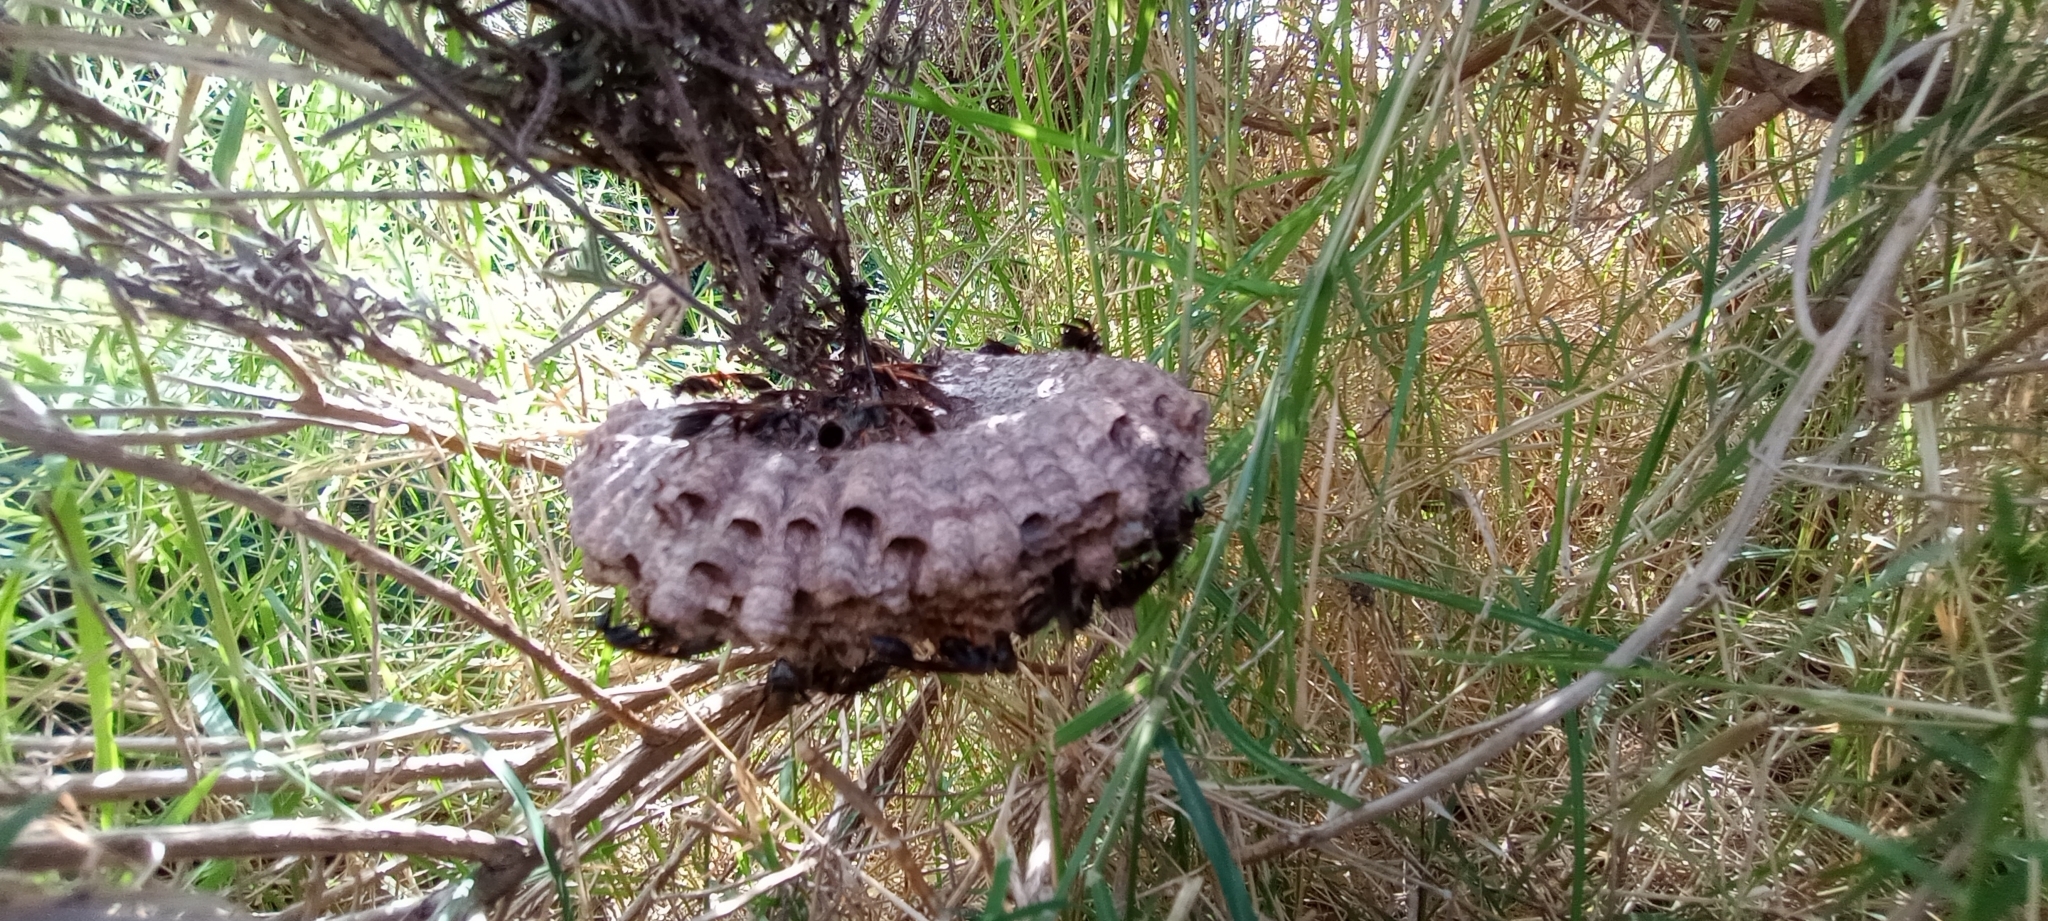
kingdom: Animalia
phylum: Arthropoda
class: Insecta
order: Hymenoptera
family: Vespidae
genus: Mischocyttarus
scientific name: Mischocyttarus drewseni
